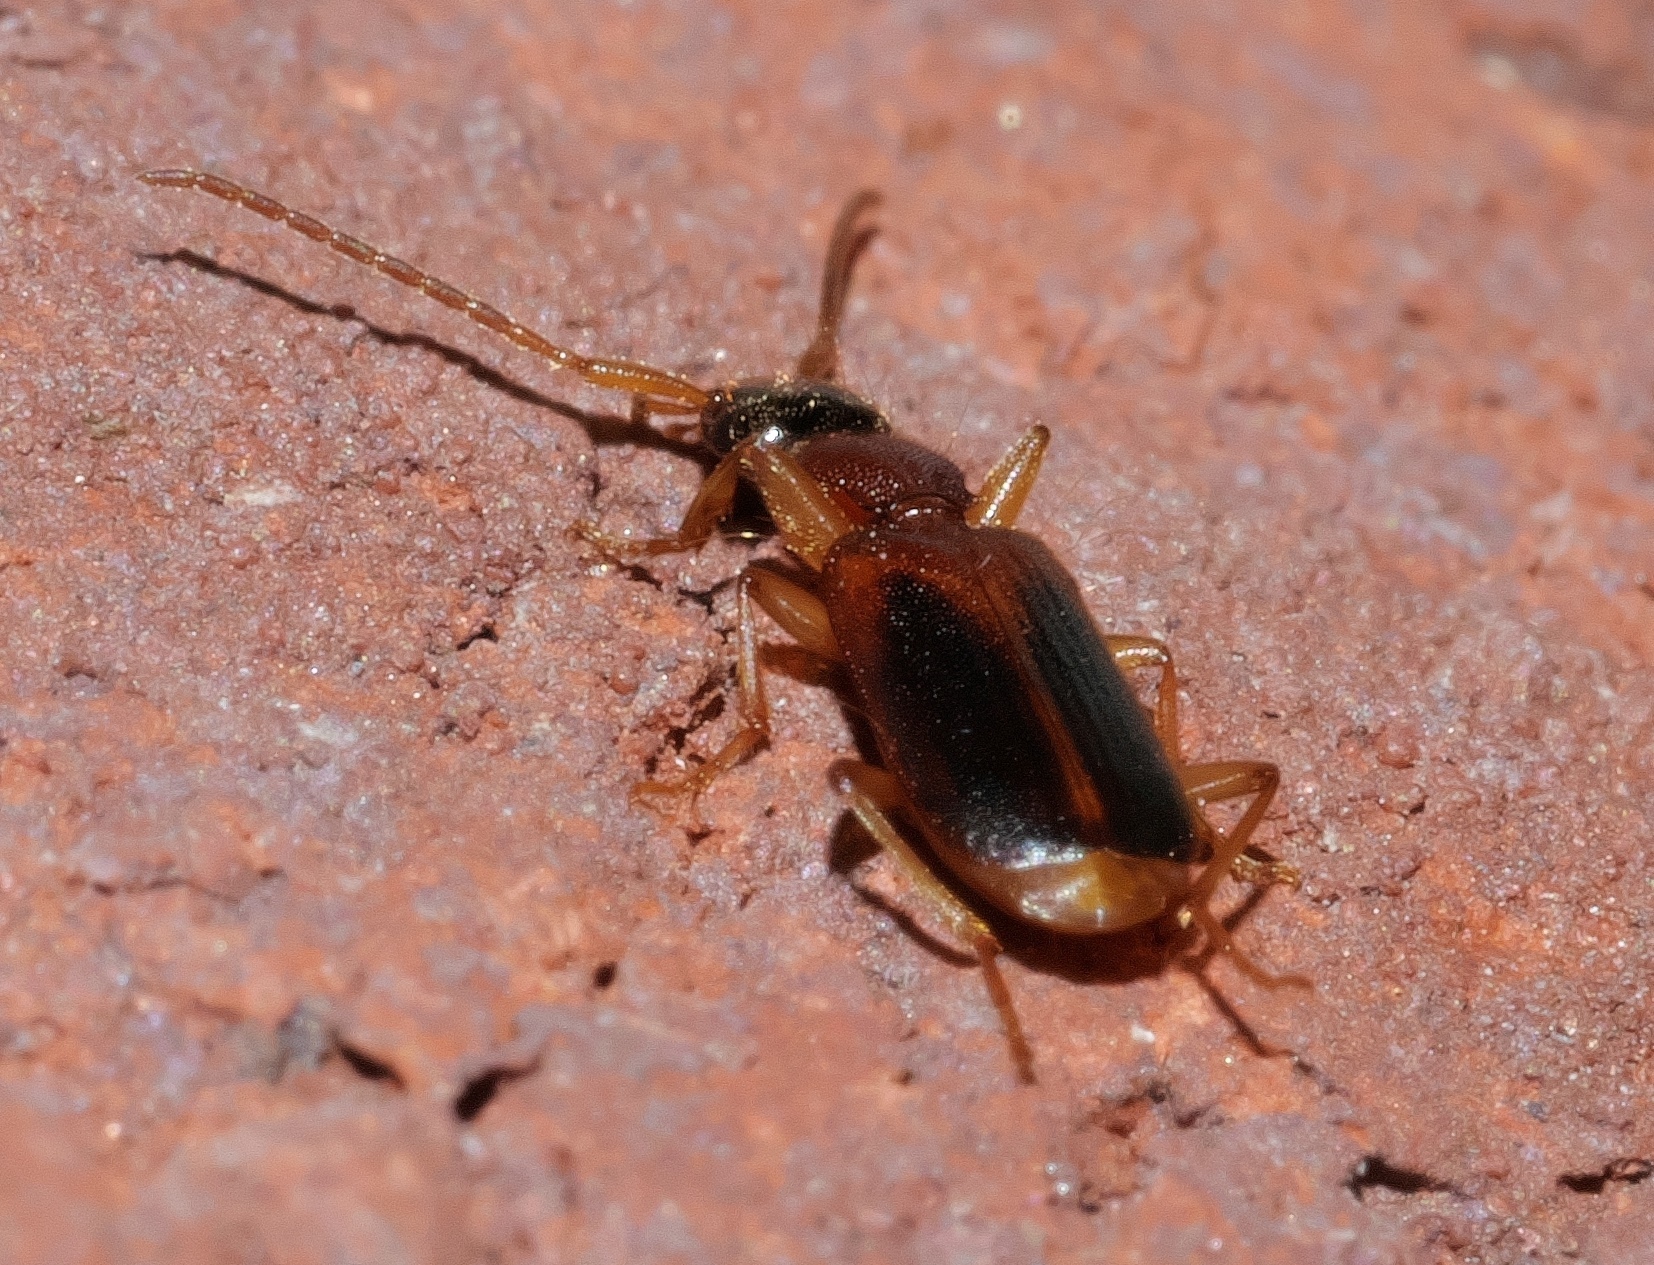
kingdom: Animalia
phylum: Arthropoda
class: Insecta
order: Coleoptera
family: Carabidae
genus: Zuphioides
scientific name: Zuphioides americanum
